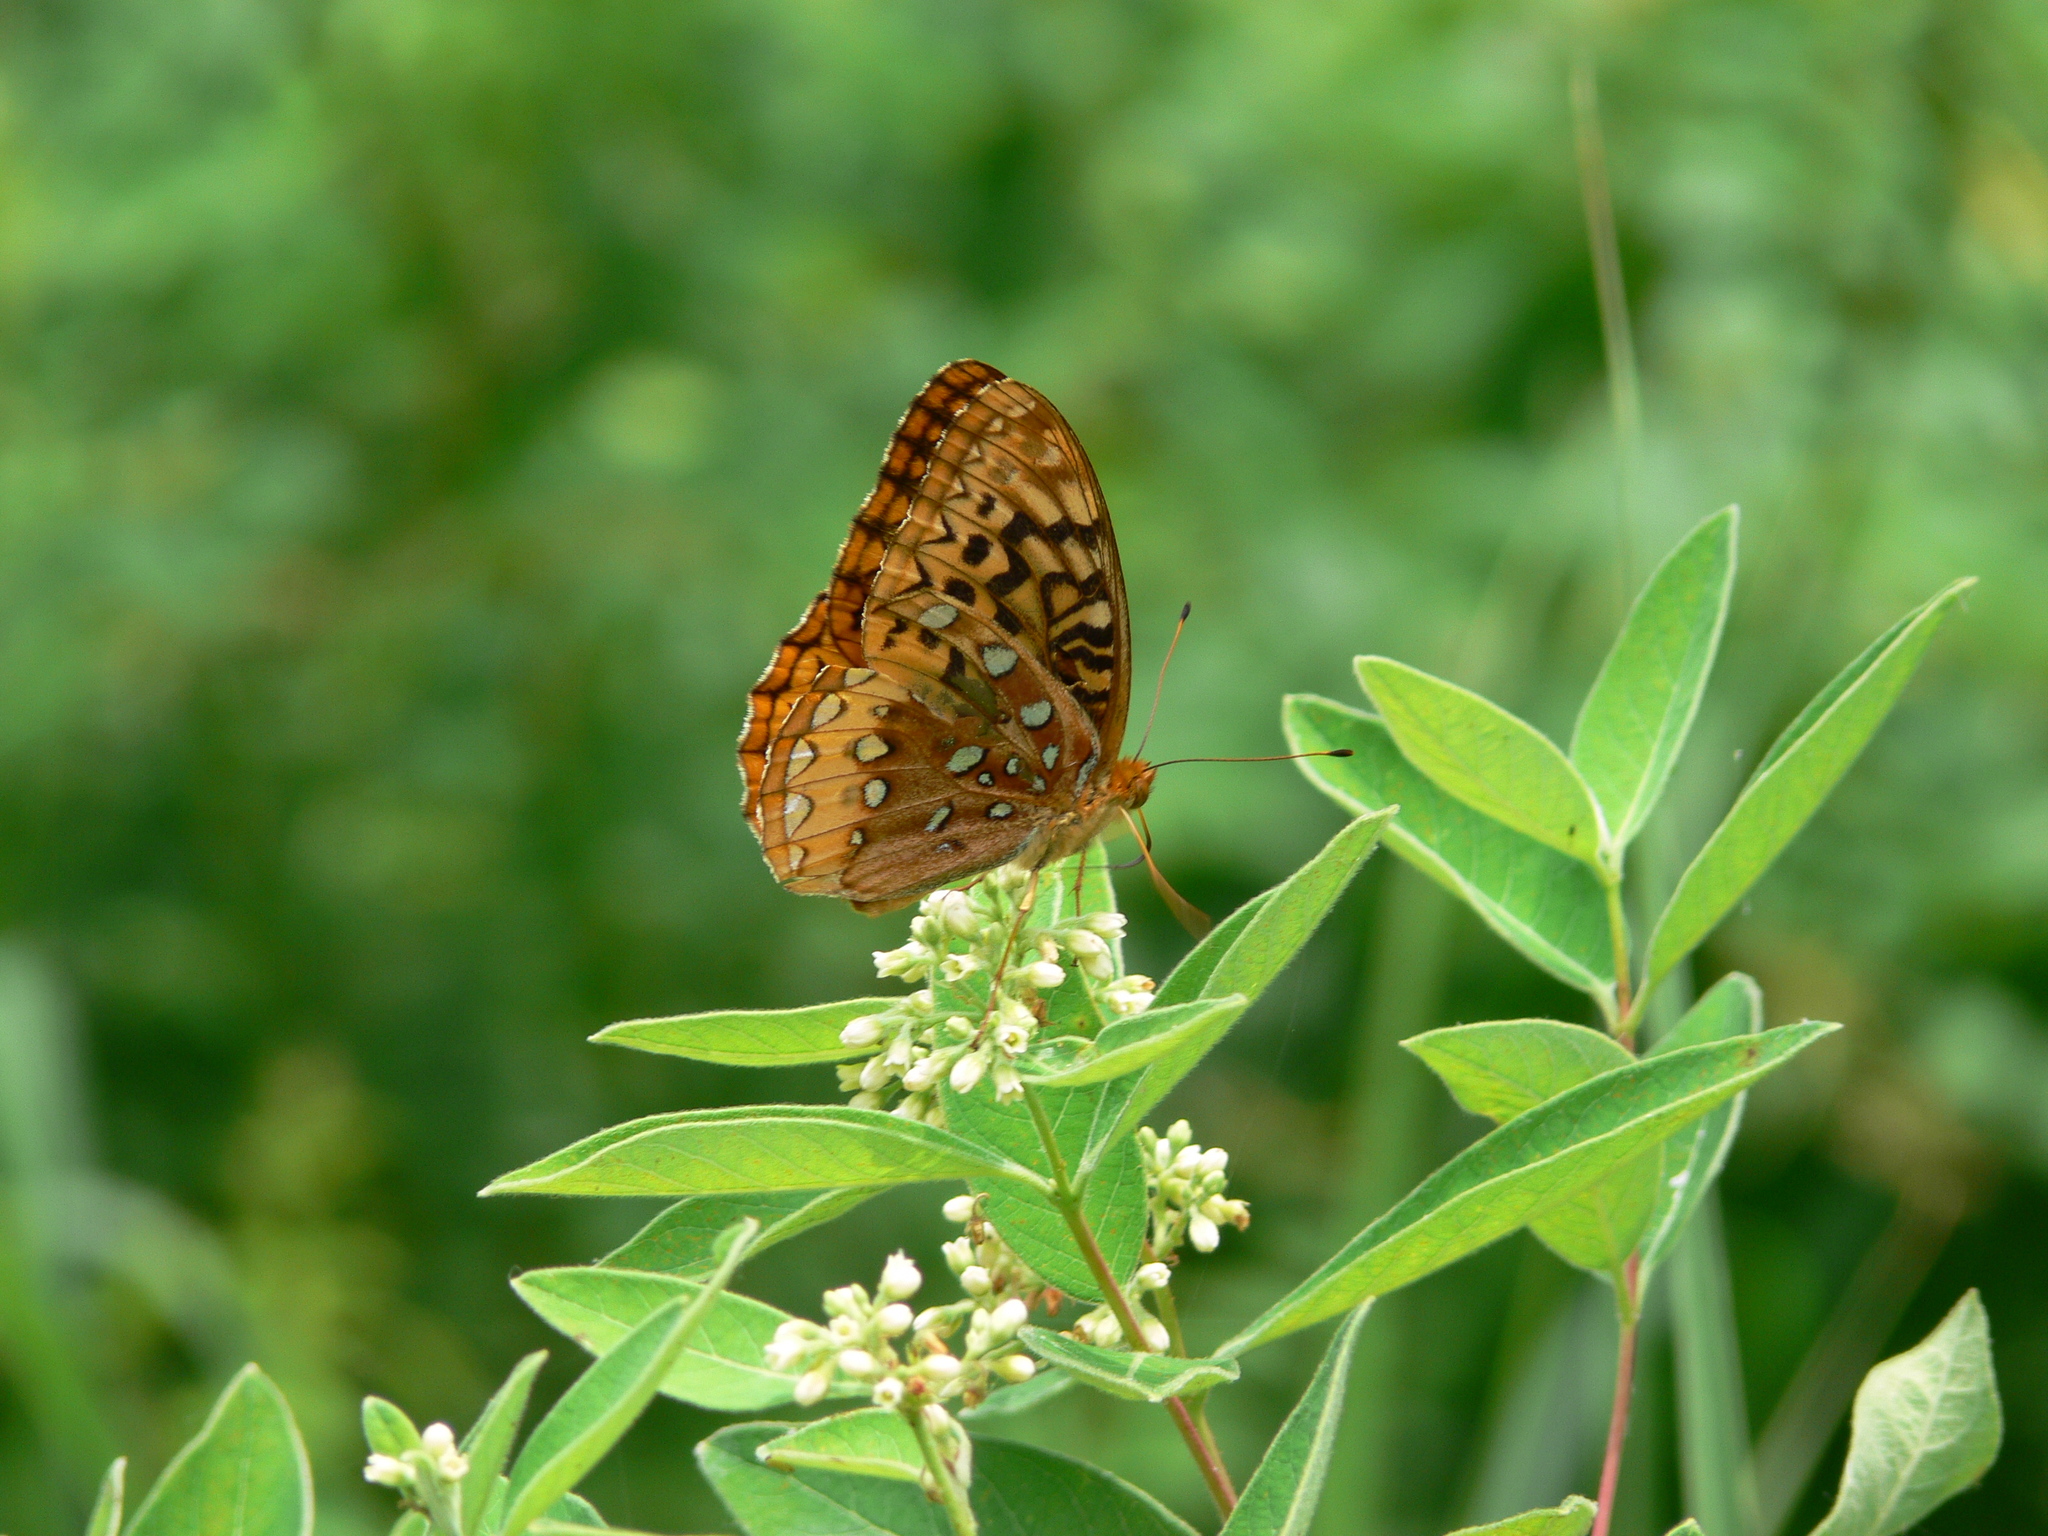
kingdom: Animalia
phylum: Arthropoda
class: Insecta
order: Lepidoptera
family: Nymphalidae
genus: Speyeria
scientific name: Speyeria cybele
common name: Great spangled fritillary
